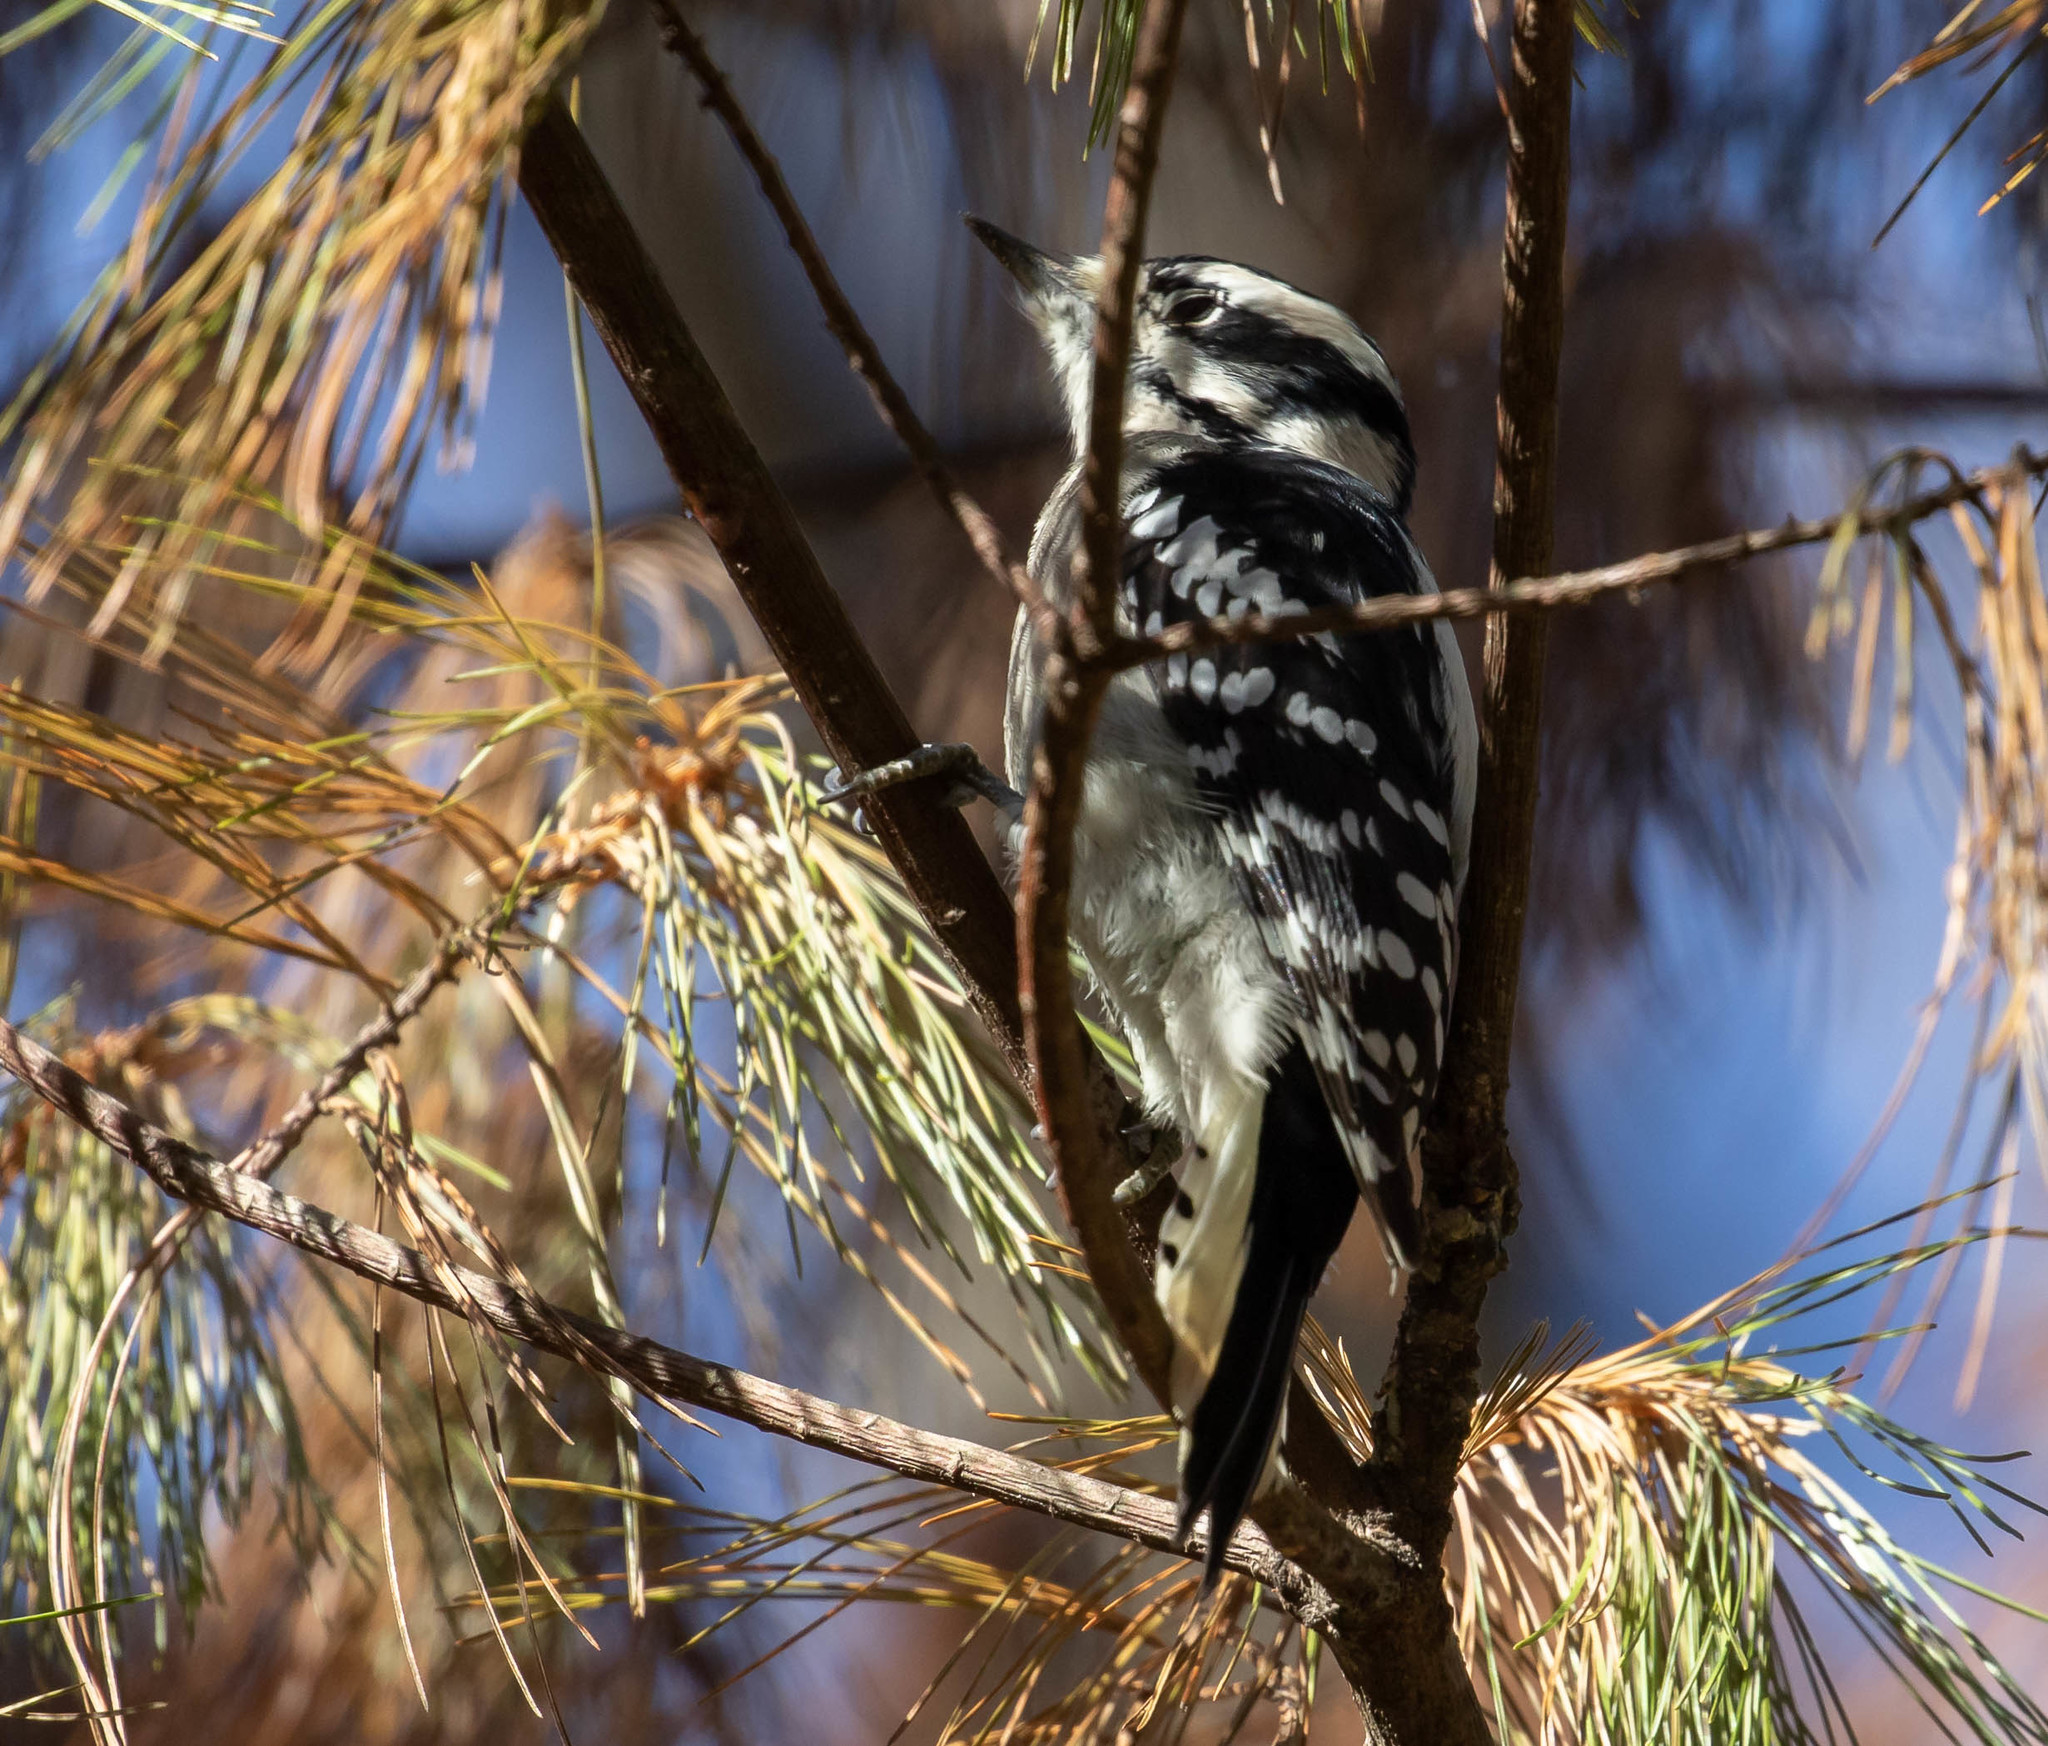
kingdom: Animalia
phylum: Chordata
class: Aves
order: Piciformes
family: Picidae
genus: Dryobates
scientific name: Dryobates pubescens
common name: Downy woodpecker
